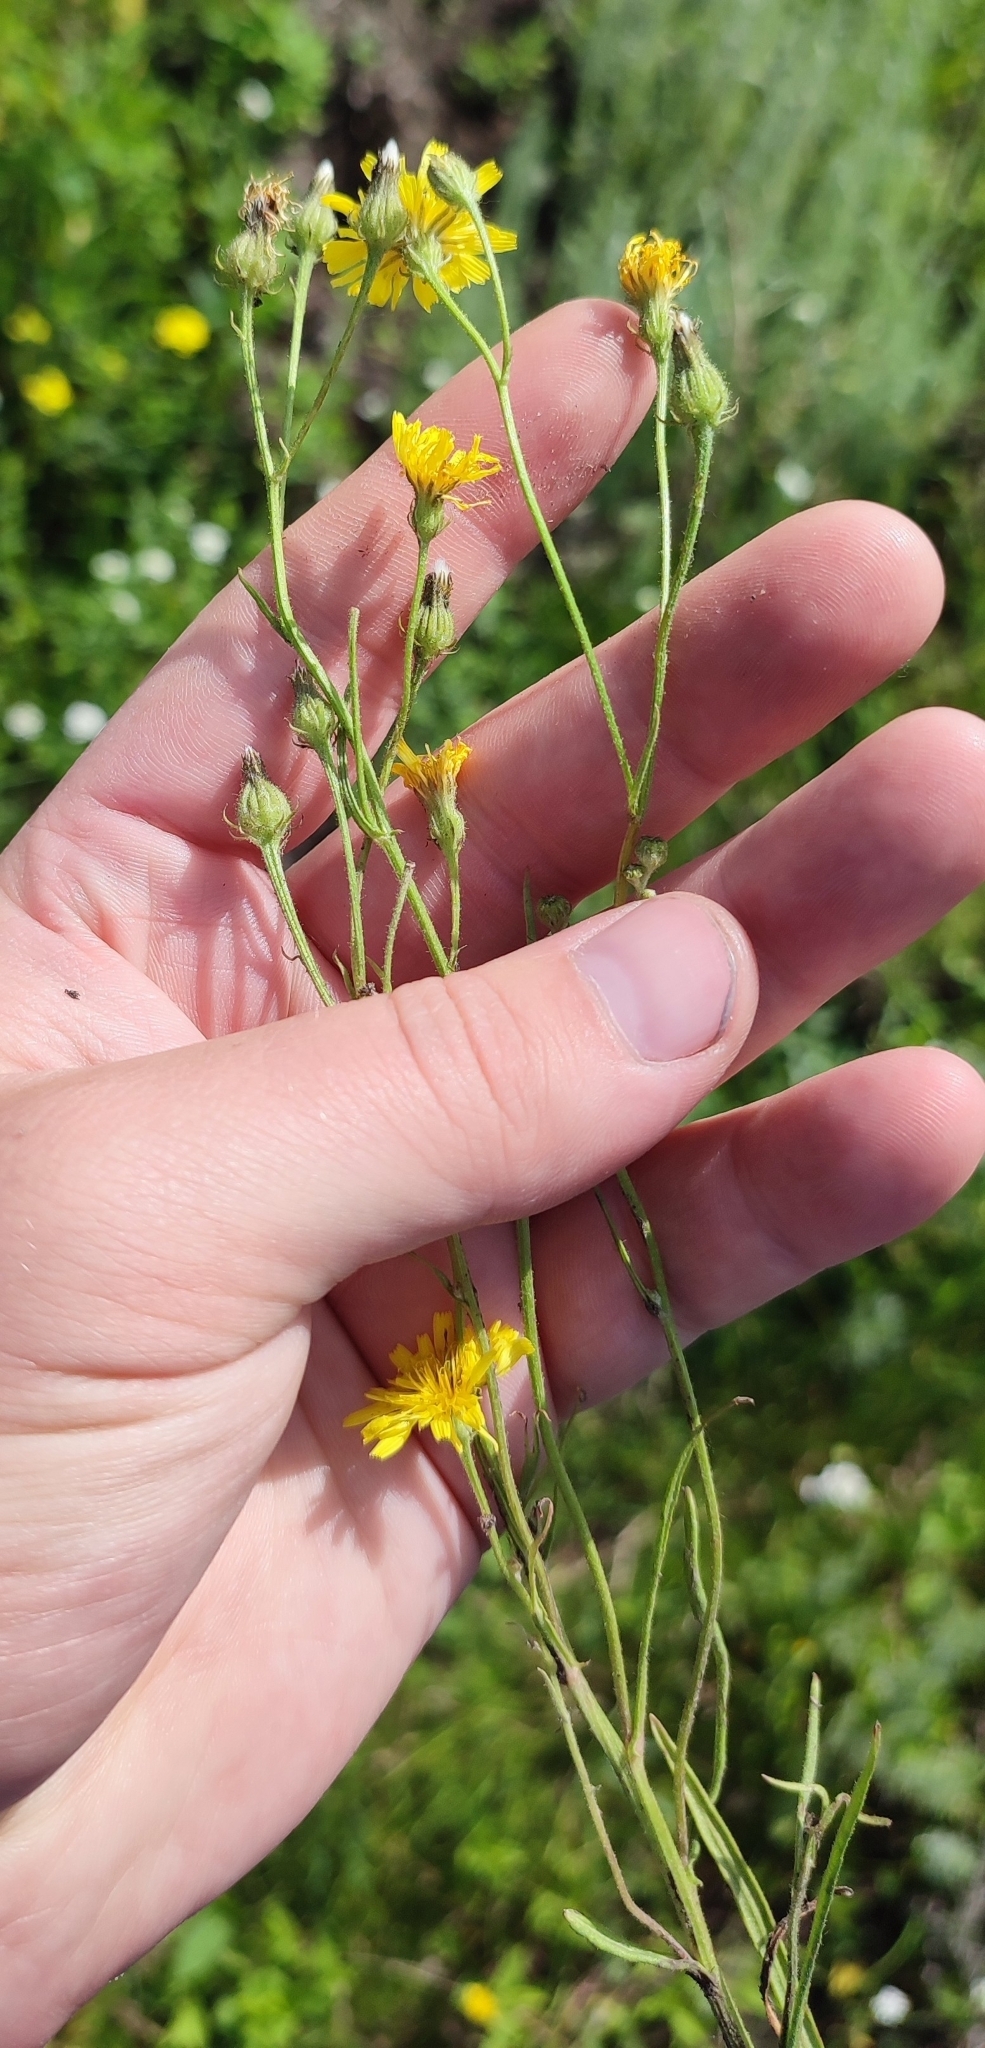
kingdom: Plantae
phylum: Tracheophyta
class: Magnoliopsida
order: Asterales
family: Asteraceae
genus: Crepis
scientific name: Crepis tectorum
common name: Narrow-leaved hawk's-beard
